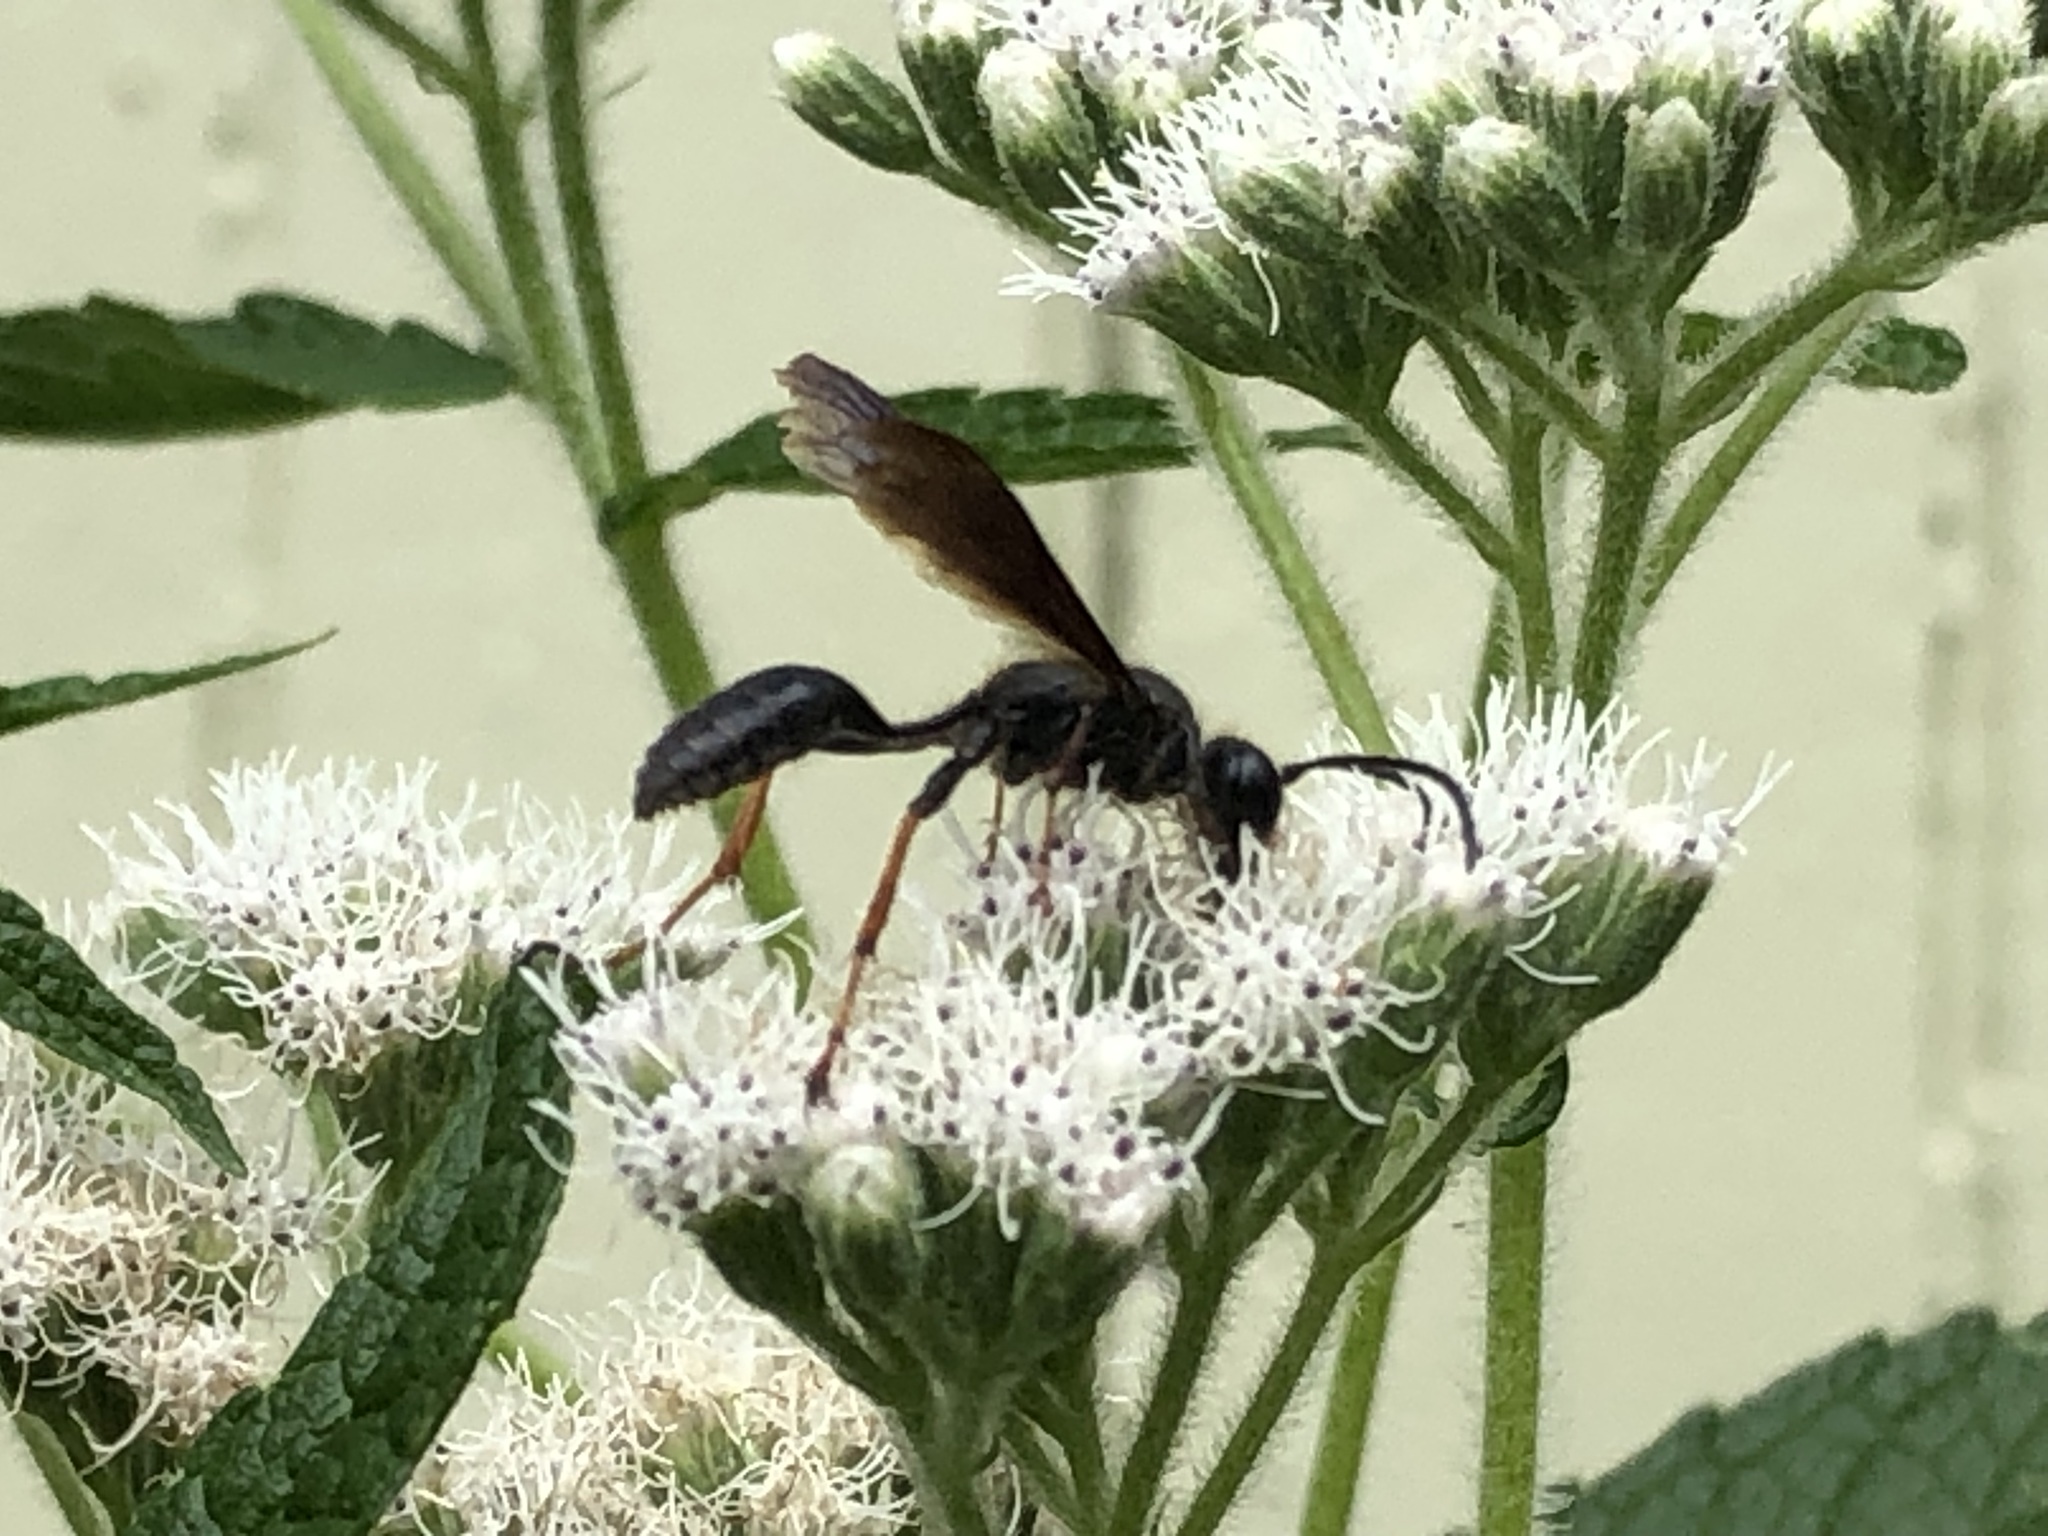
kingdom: Animalia
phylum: Arthropoda
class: Insecta
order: Hymenoptera
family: Sphecidae
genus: Isodontia
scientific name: Isodontia auripes
